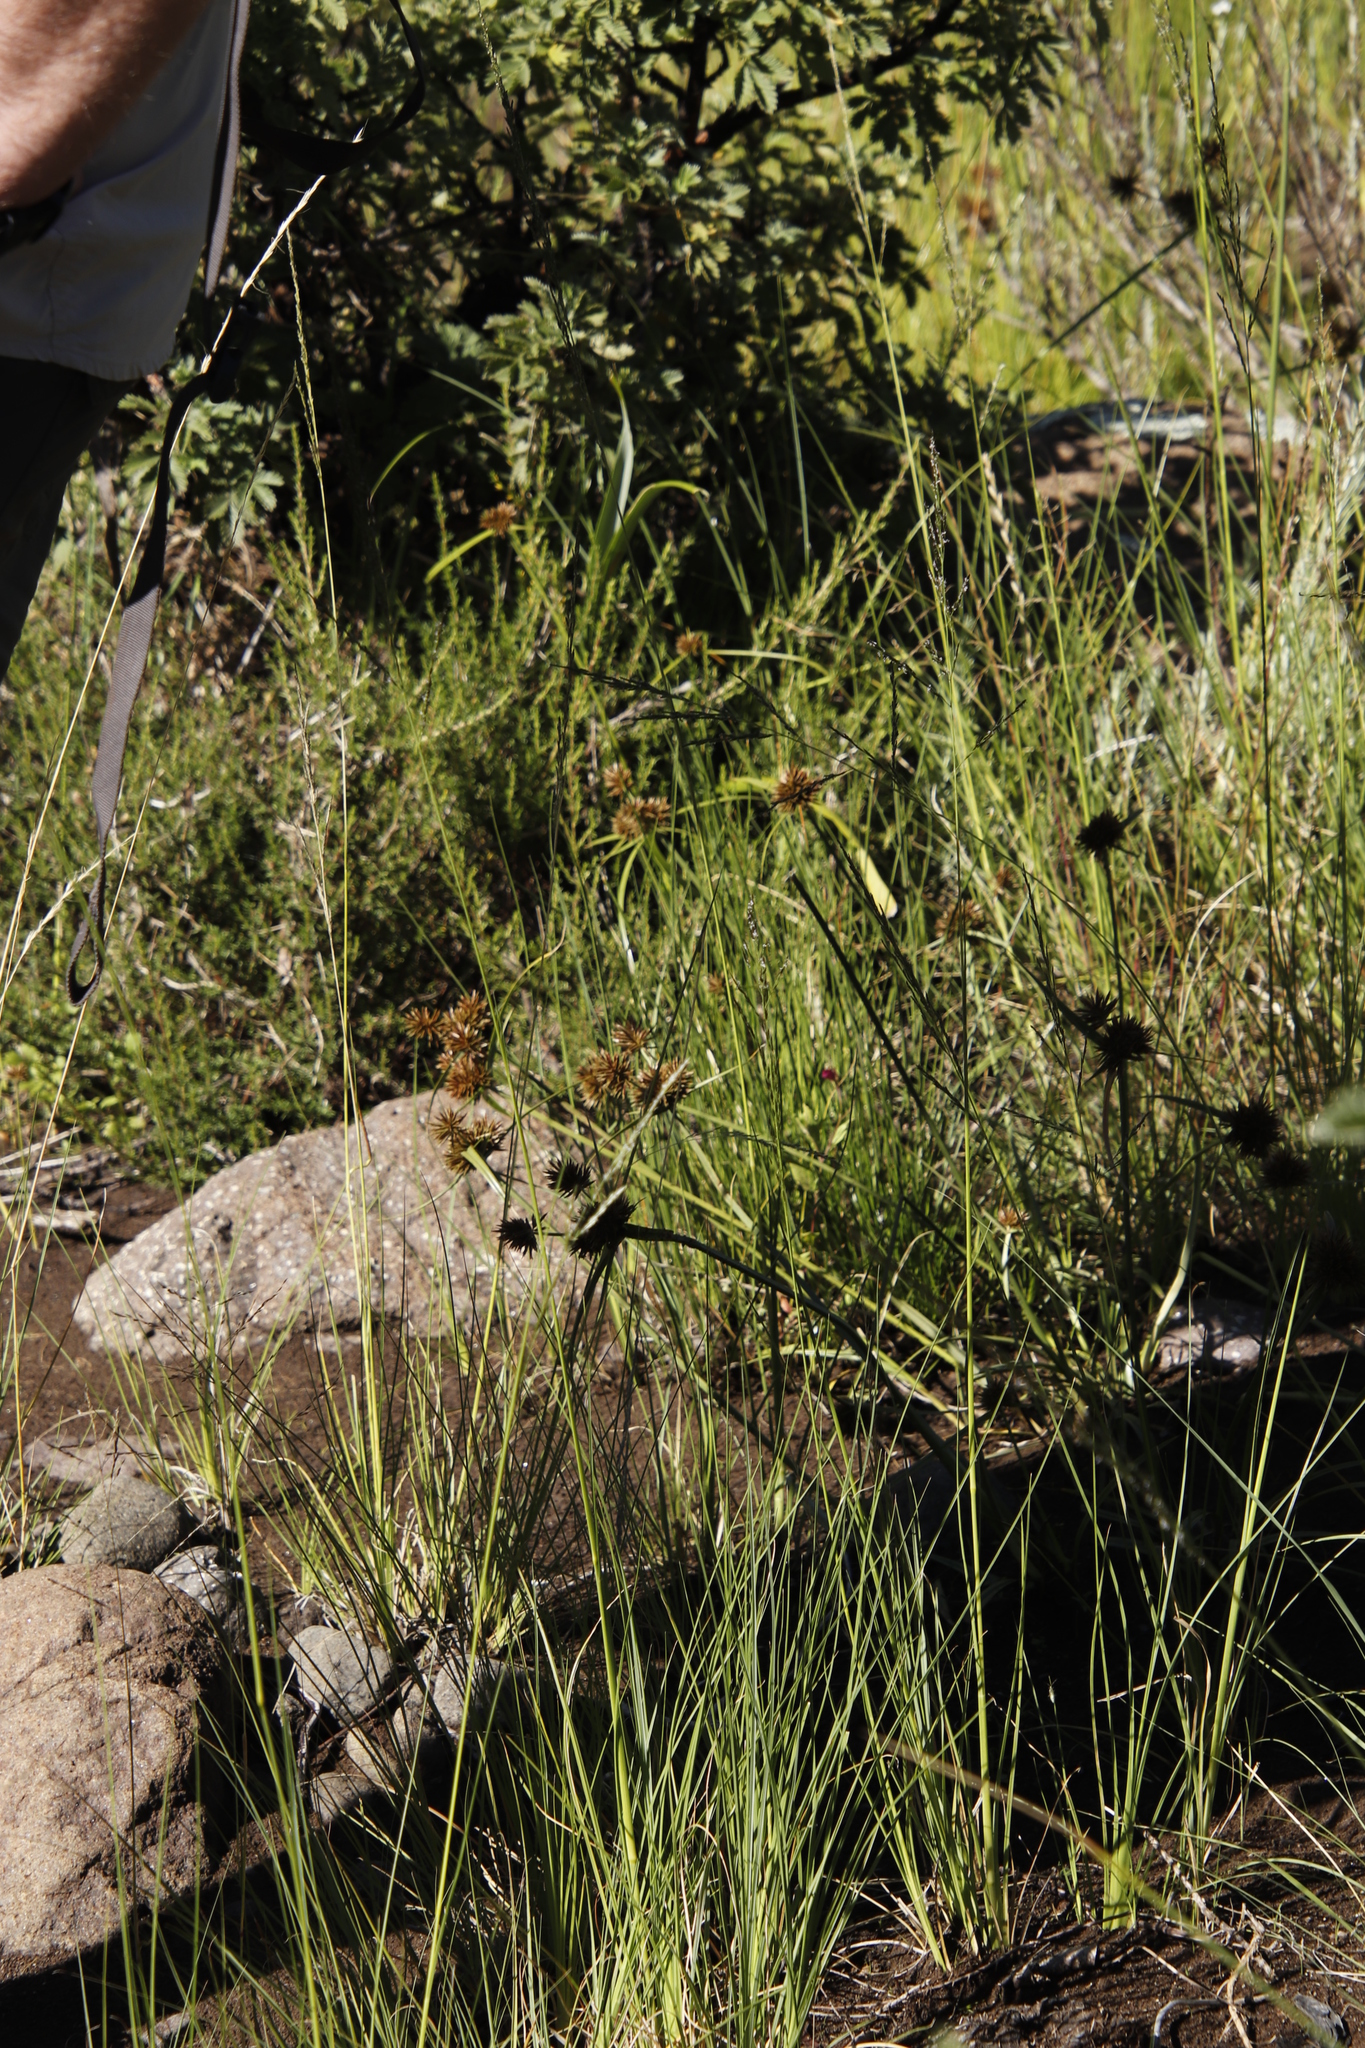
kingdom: Plantae
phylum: Tracheophyta
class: Liliopsida
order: Poales
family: Cyperaceae
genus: Cyperus
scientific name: Cyperus congestus
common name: Dense flat sedge
